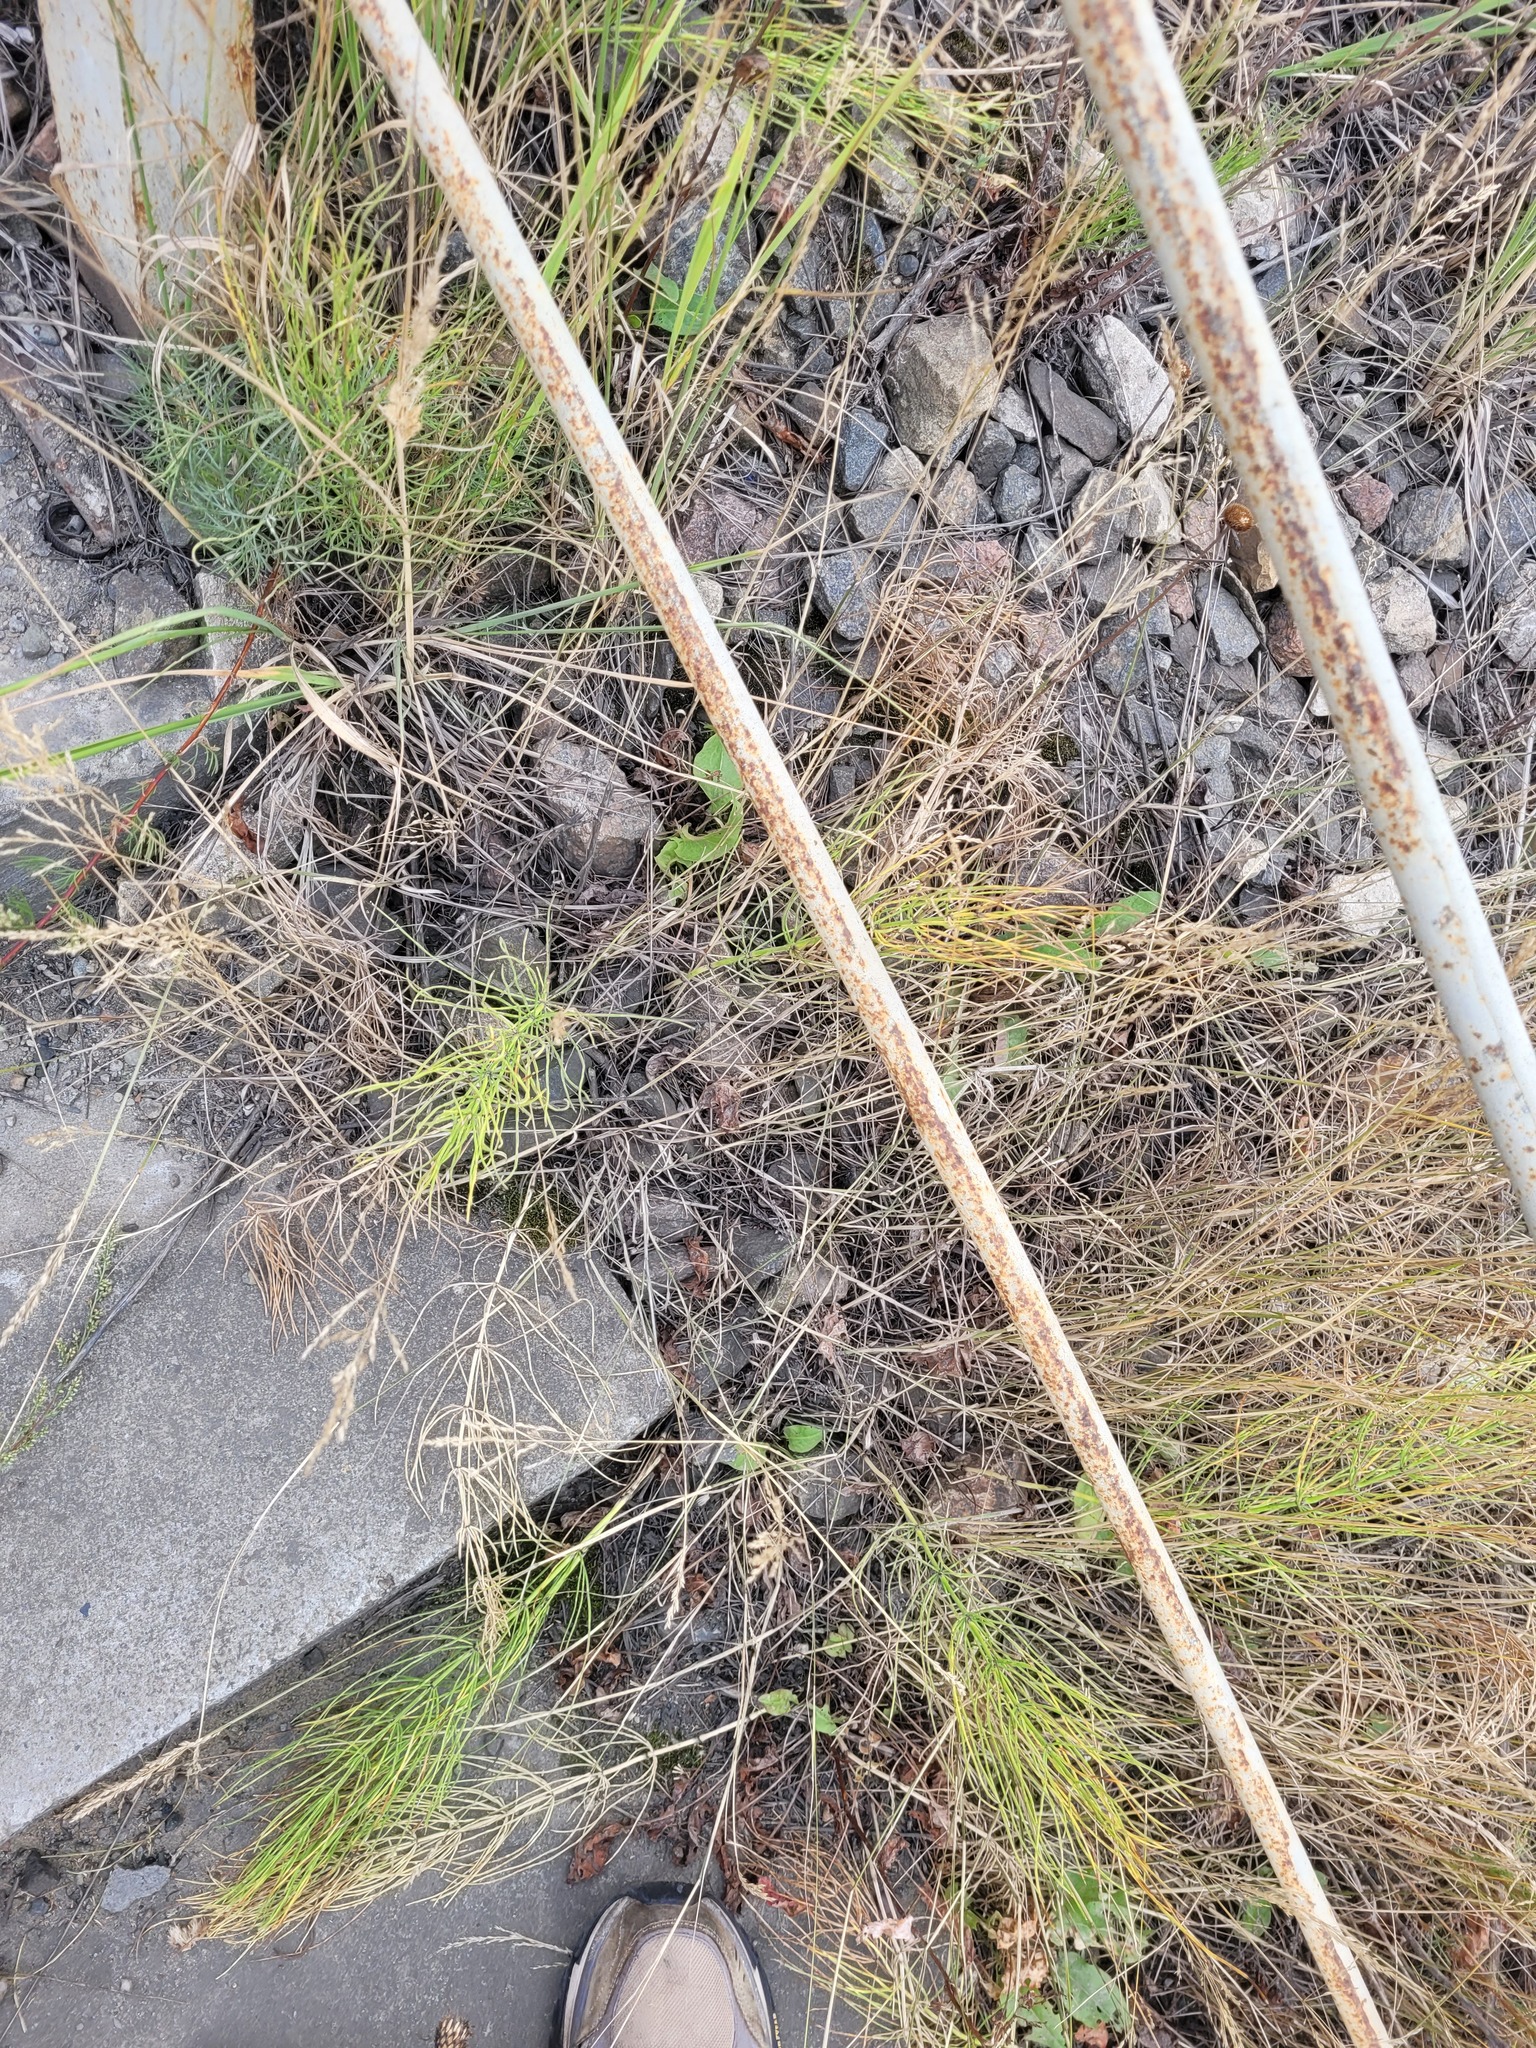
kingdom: Plantae
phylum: Tracheophyta
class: Polypodiopsida
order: Equisetales
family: Equisetaceae
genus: Equisetum
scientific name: Equisetum arvense
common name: Field horsetail
